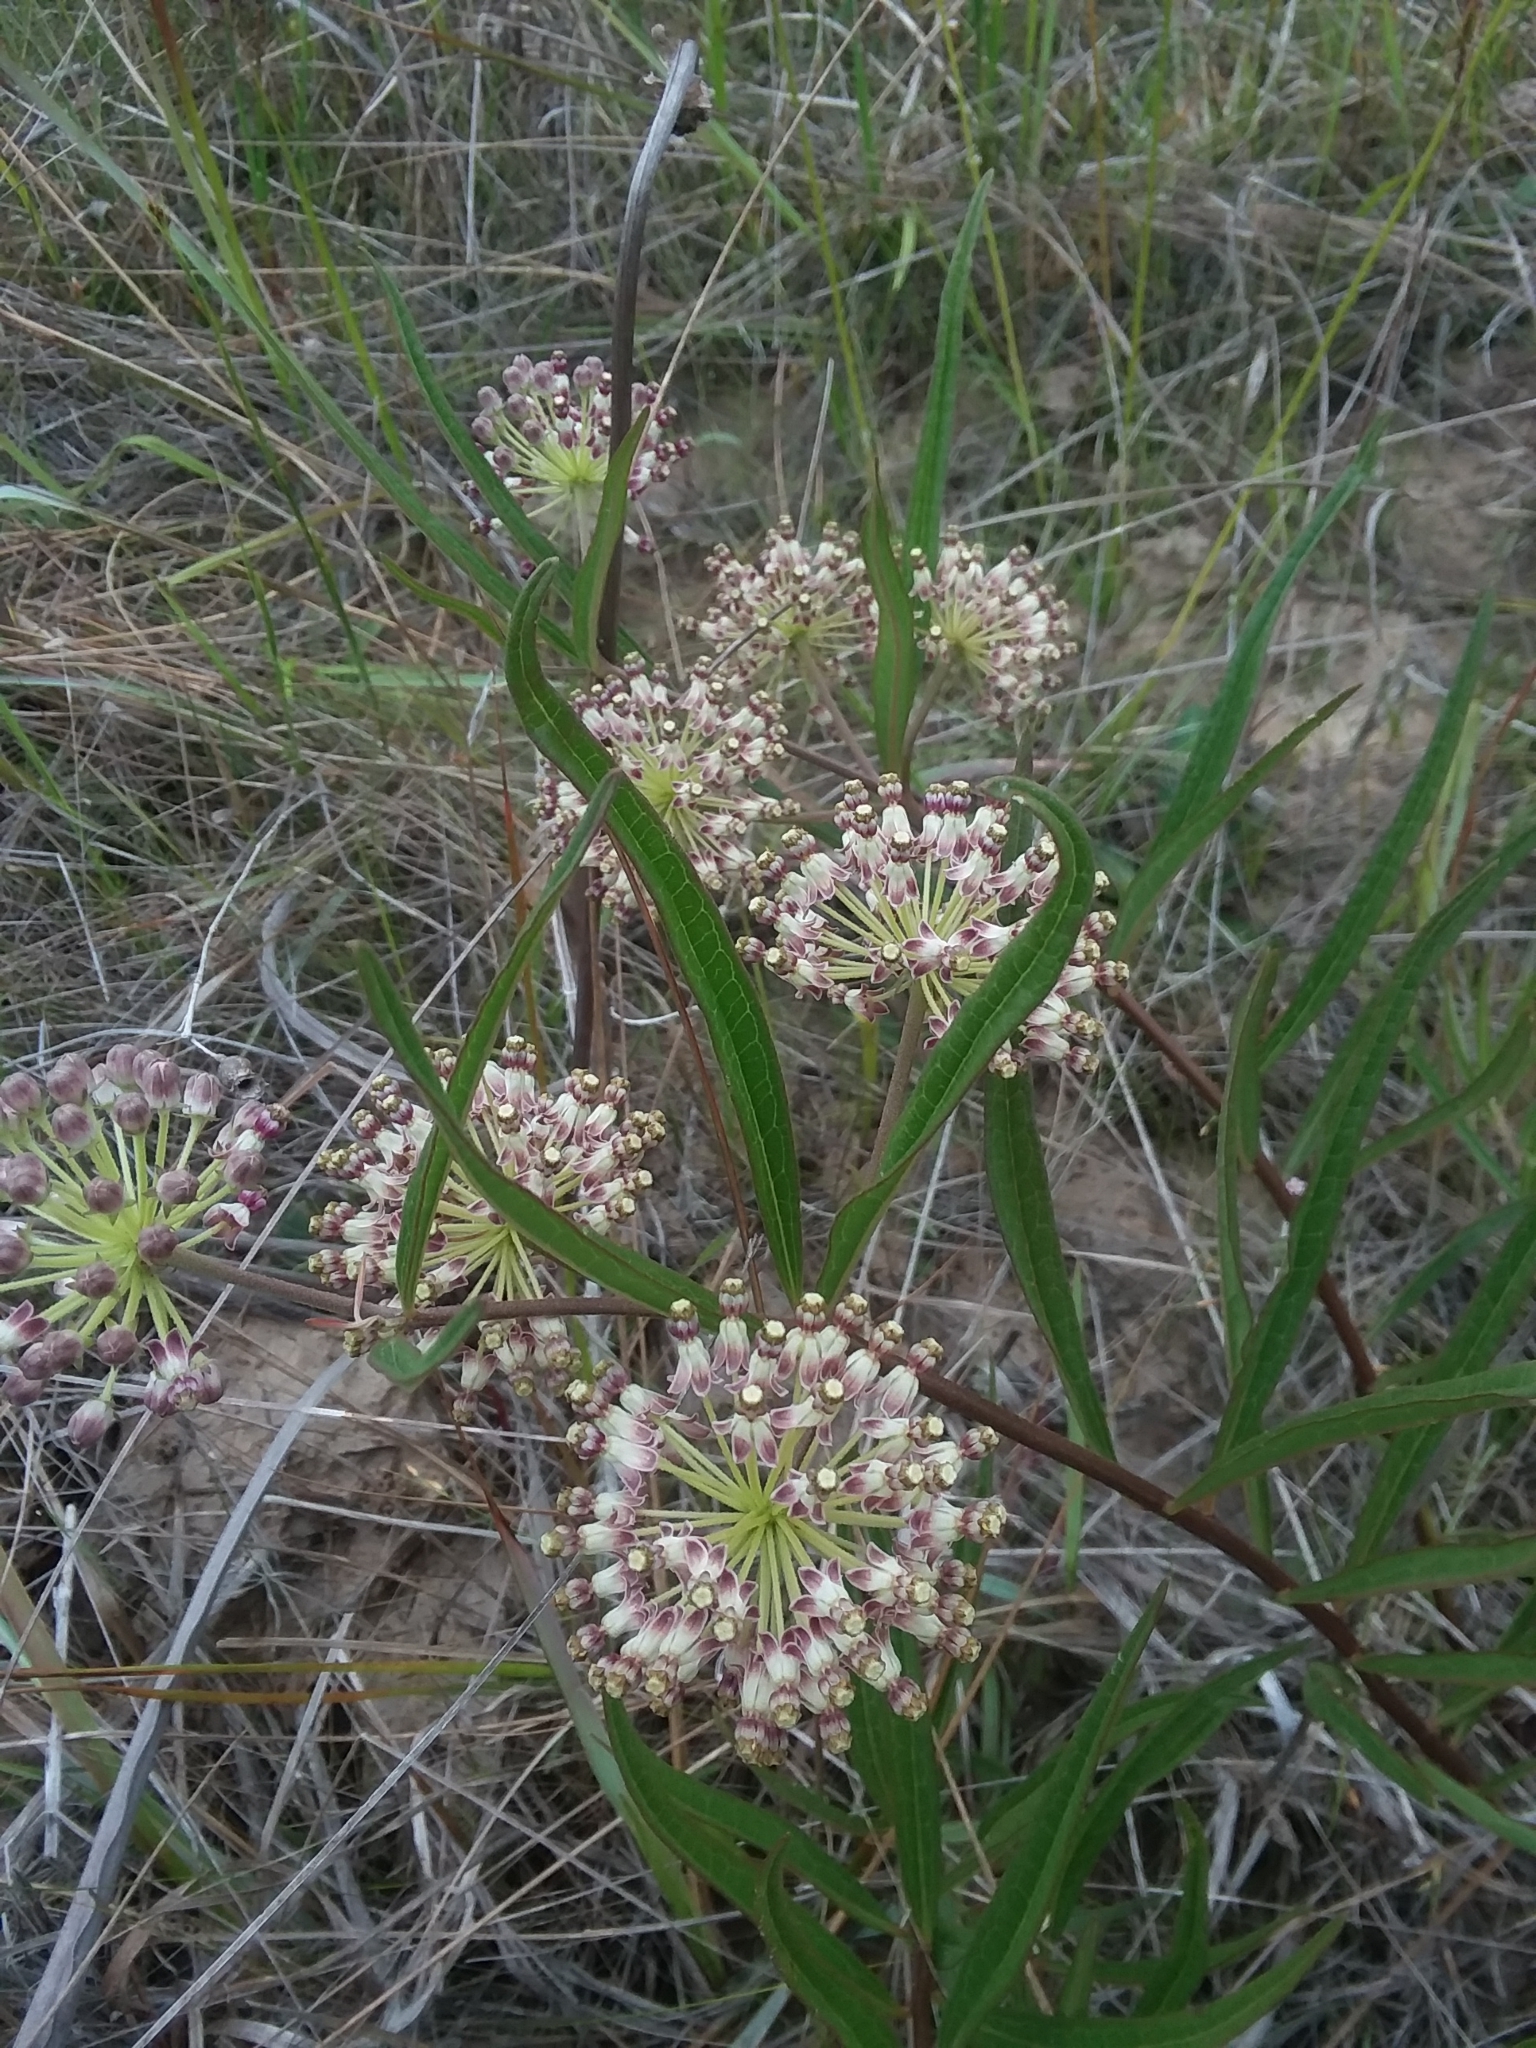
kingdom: Plantae
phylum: Tracheophyta
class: Magnoliopsida
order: Gentianales
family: Apocynaceae
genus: Asclepias
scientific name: Asclepias longifolia
